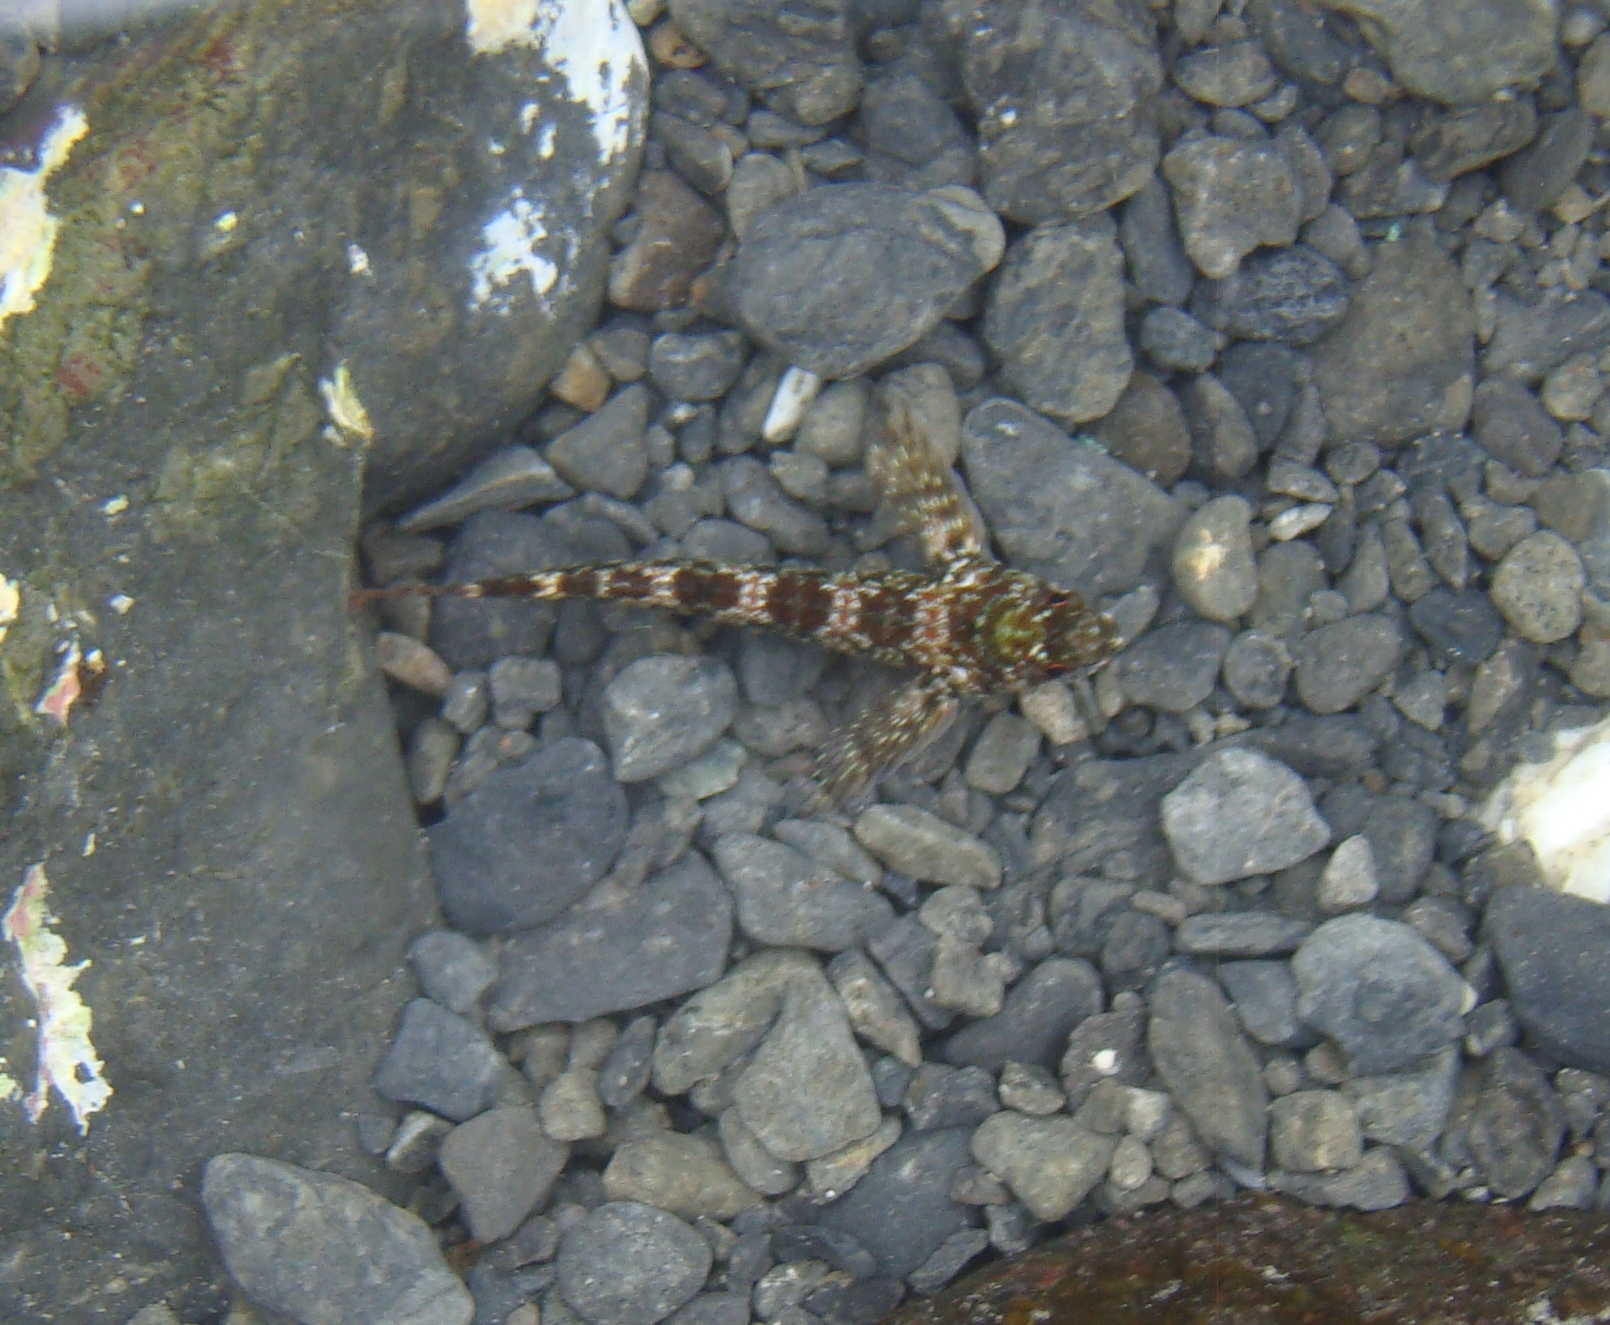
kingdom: Animalia
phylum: Chordata
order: Perciformes
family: Tripterygiidae
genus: Bellapiscis
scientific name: Bellapiscis lesleyae
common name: Mottled twister
